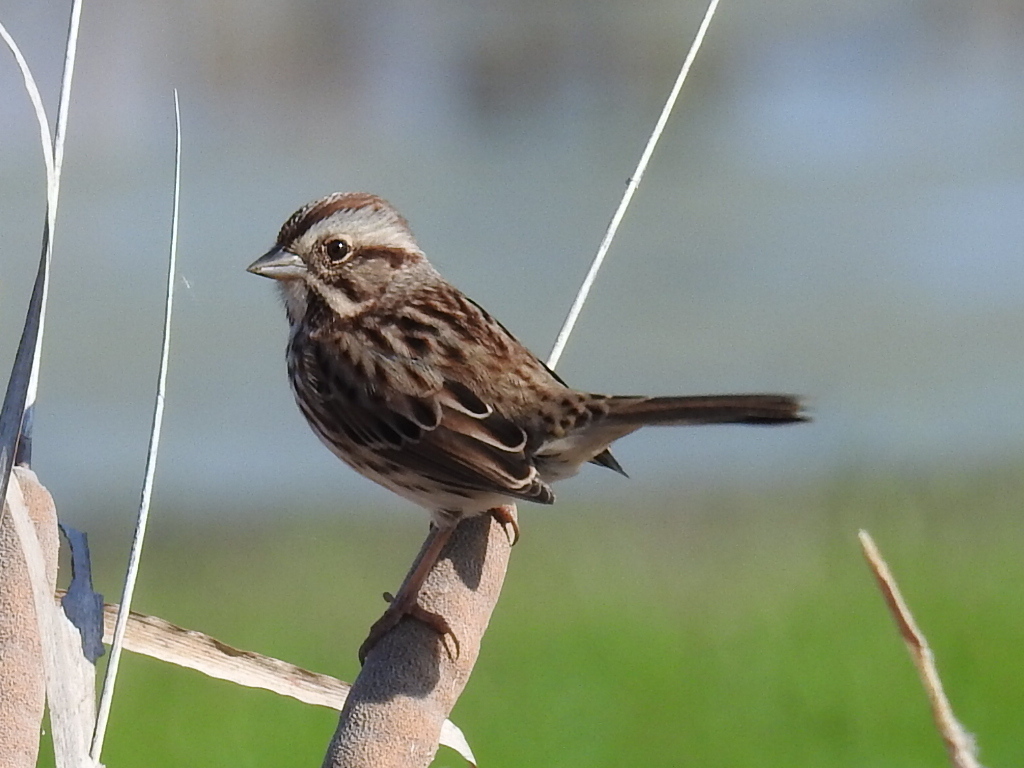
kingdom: Animalia
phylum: Chordata
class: Aves
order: Passeriformes
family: Passerellidae
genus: Melospiza
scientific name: Melospiza melodia
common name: Song sparrow
